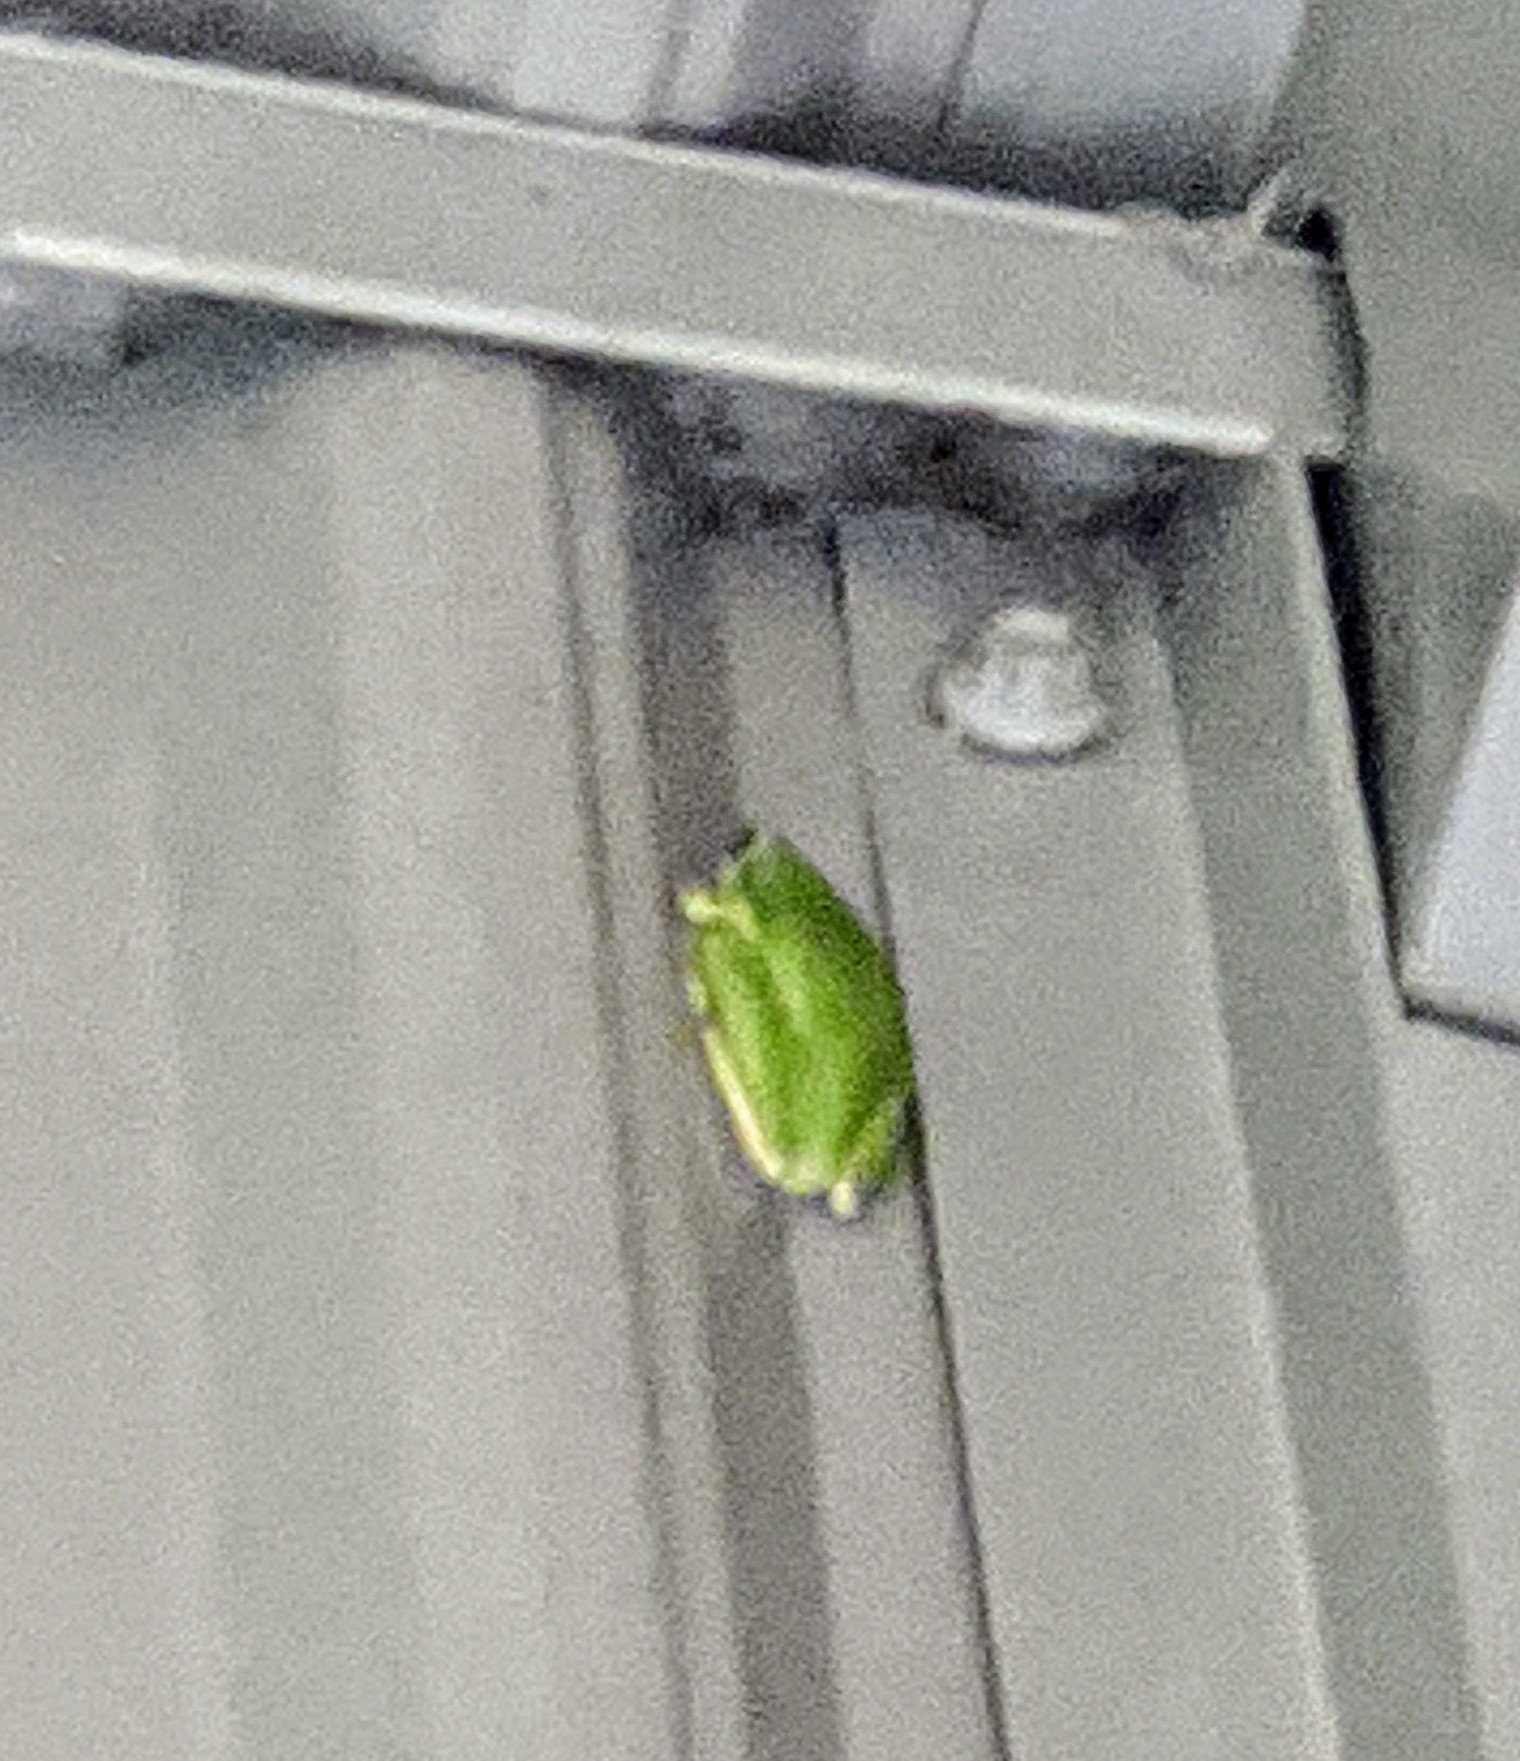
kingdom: Animalia
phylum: Chordata
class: Amphibia
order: Anura
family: Hylidae
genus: Dryophytes
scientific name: Dryophytes cinereus
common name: Green treefrog
